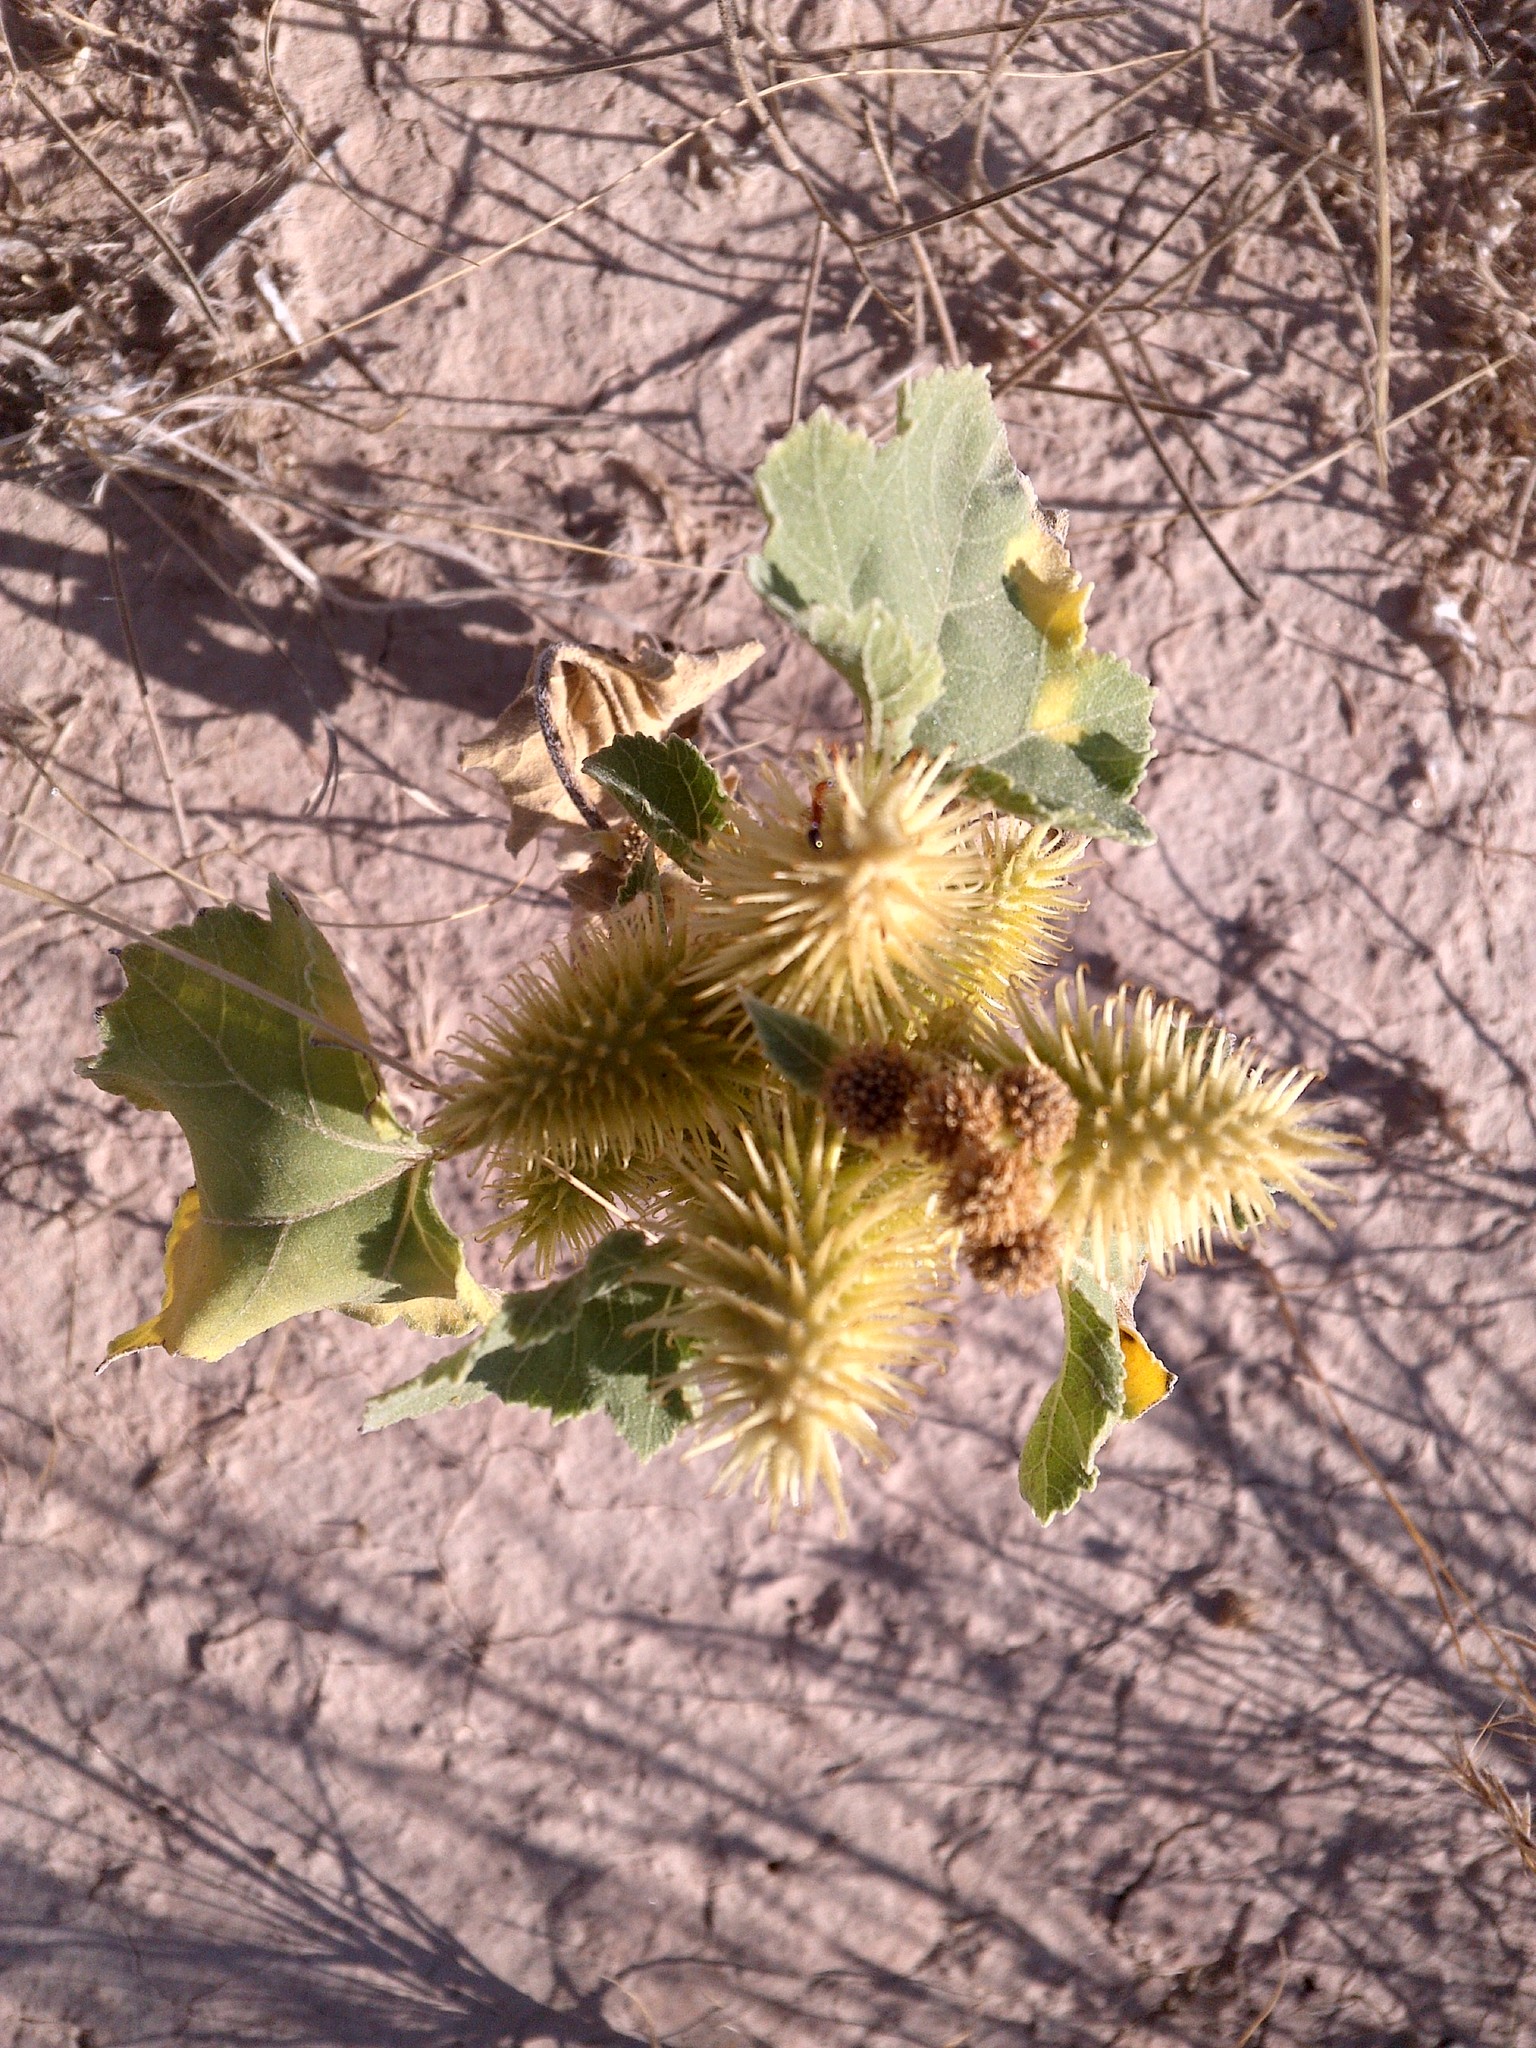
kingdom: Plantae
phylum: Tracheophyta
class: Magnoliopsida
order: Asterales
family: Asteraceae
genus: Xanthium
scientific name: Xanthium strumarium
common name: Rough cocklebur
